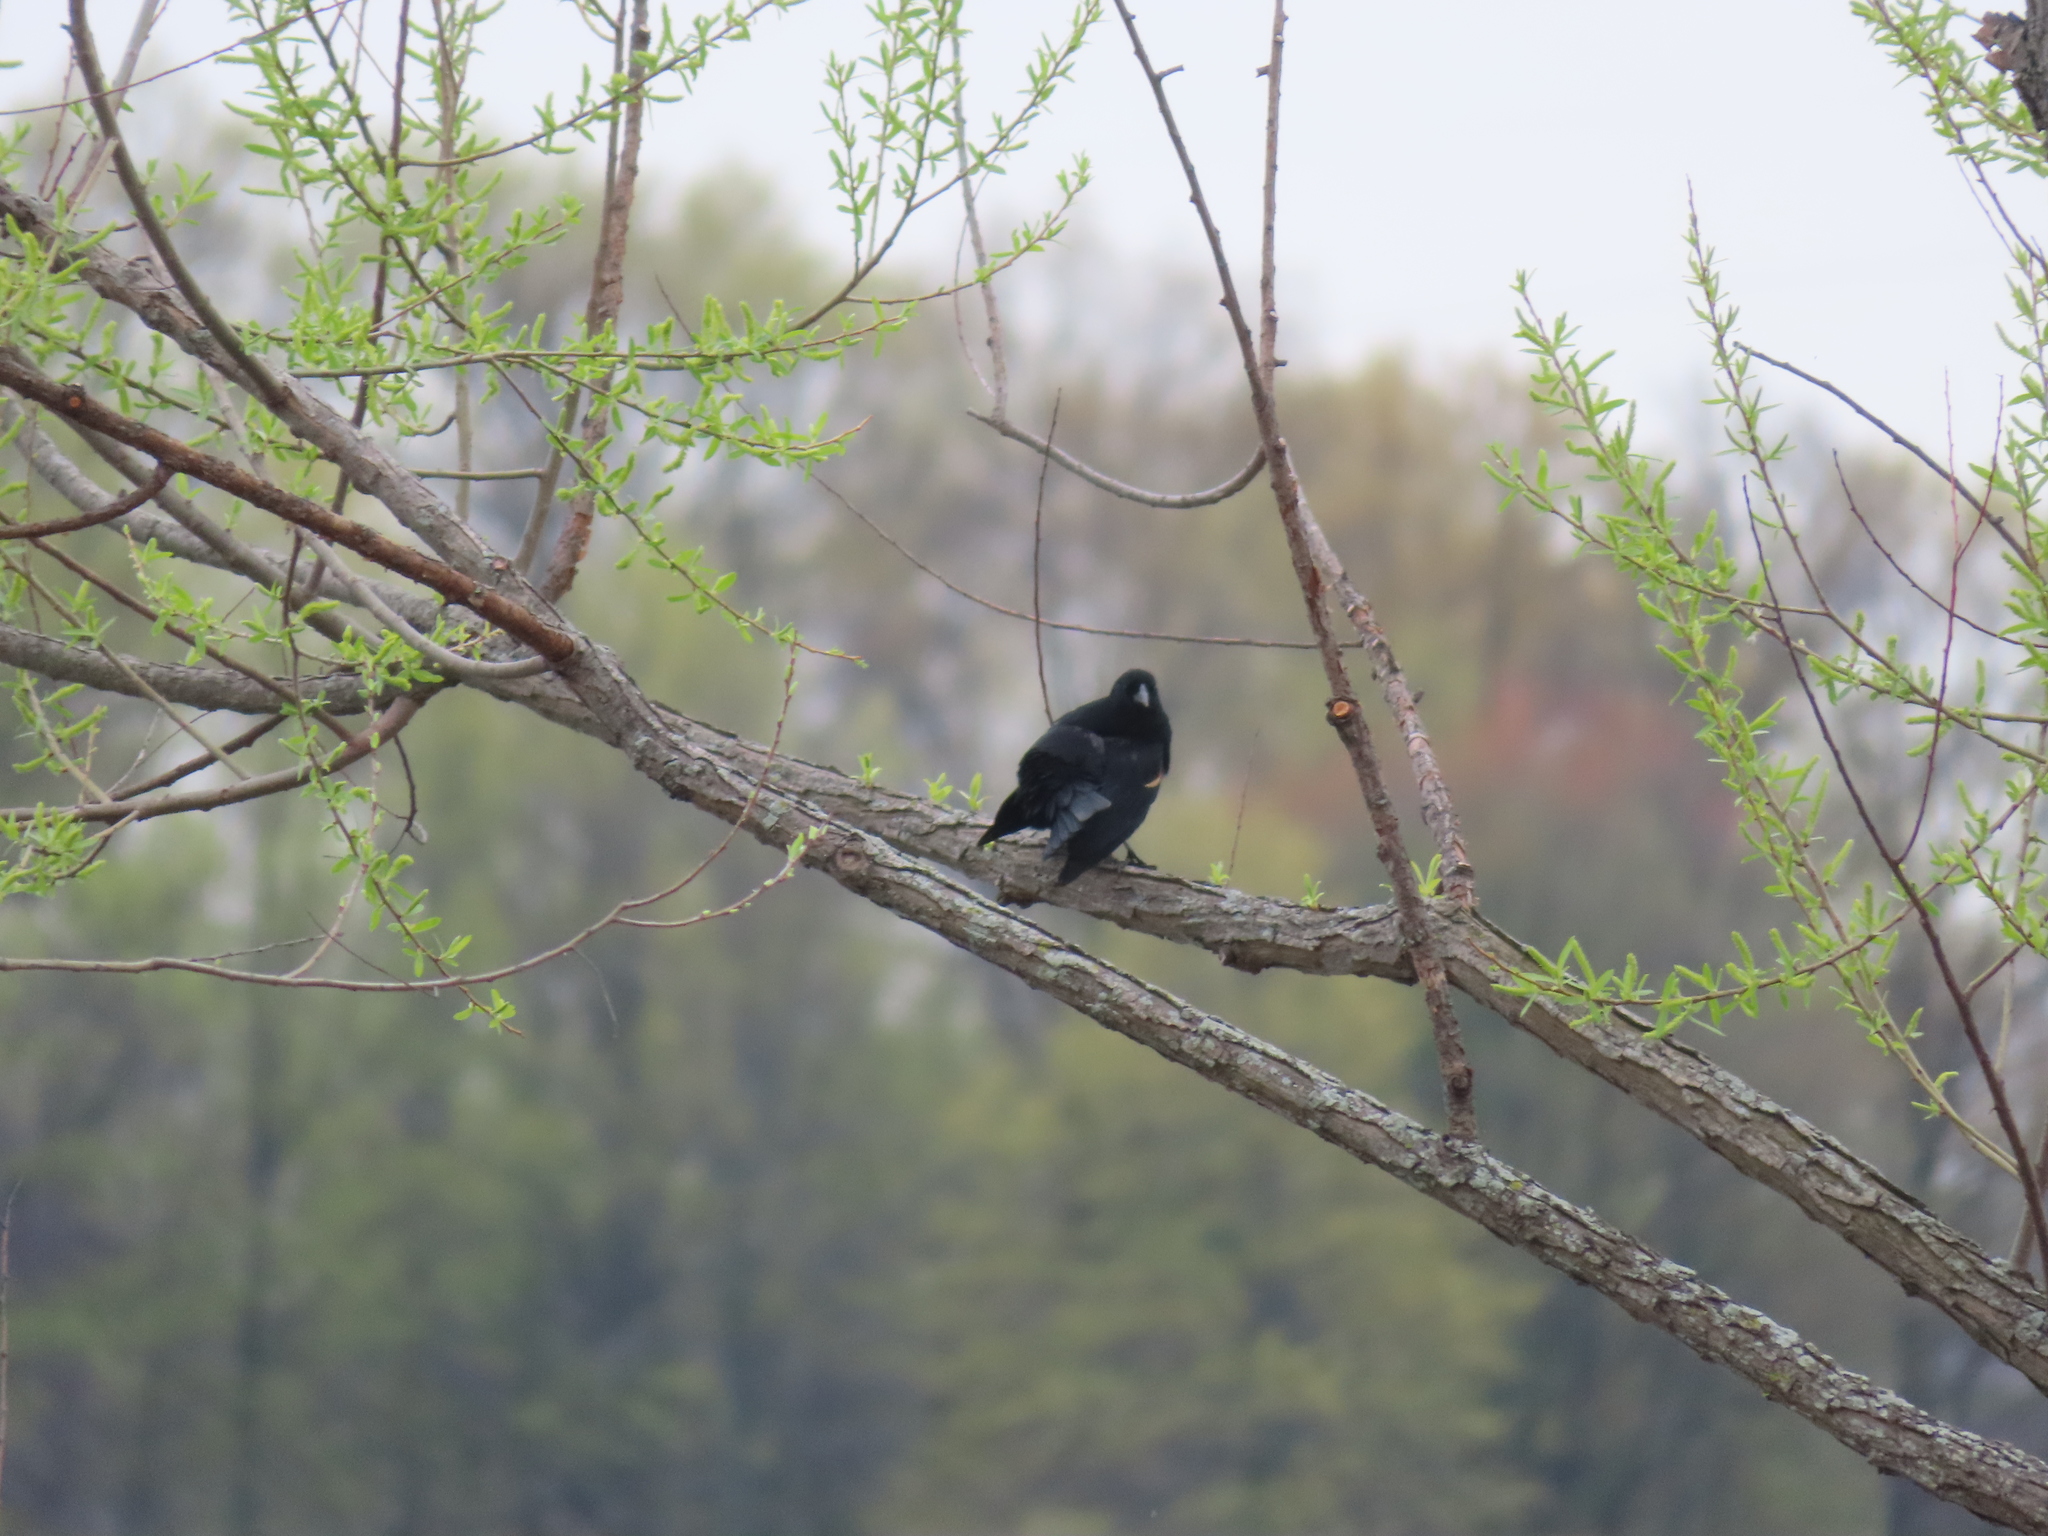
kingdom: Animalia
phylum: Chordata
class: Aves
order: Passeriformes
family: Icteridae
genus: Agelaius
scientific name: Agelaius phoeniceus
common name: Red-winged blackbird
